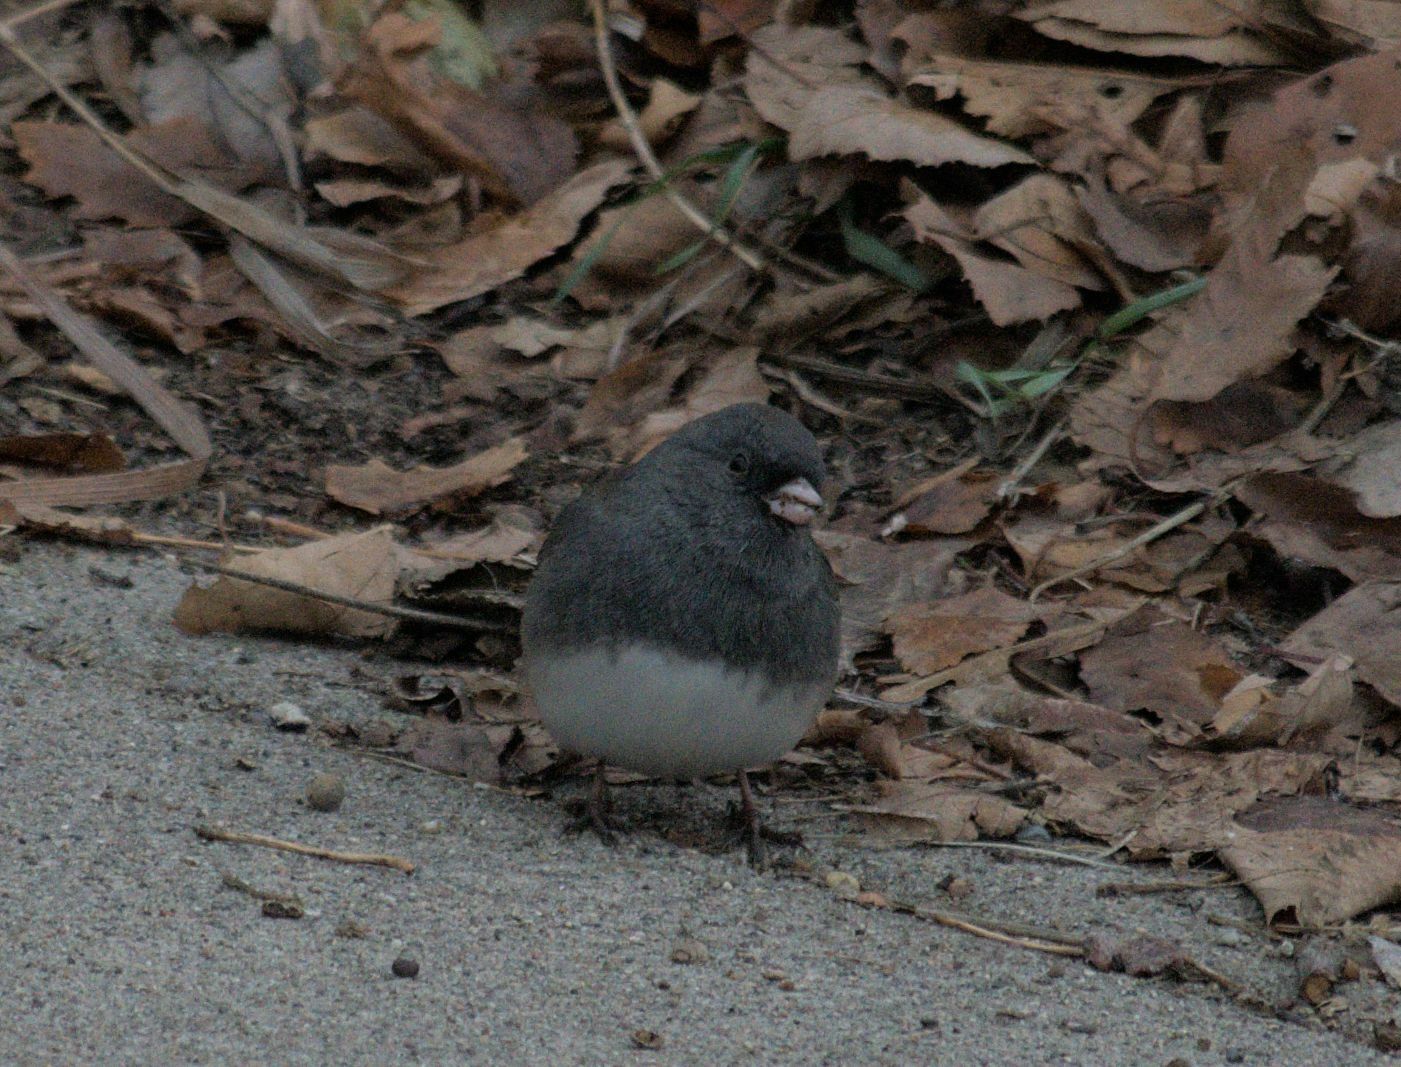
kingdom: Animalia
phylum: Chordata
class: Aves
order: Passeriformes
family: Passerellidae
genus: Junco
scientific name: Junco hyemalis
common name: Dark-eyed junco
